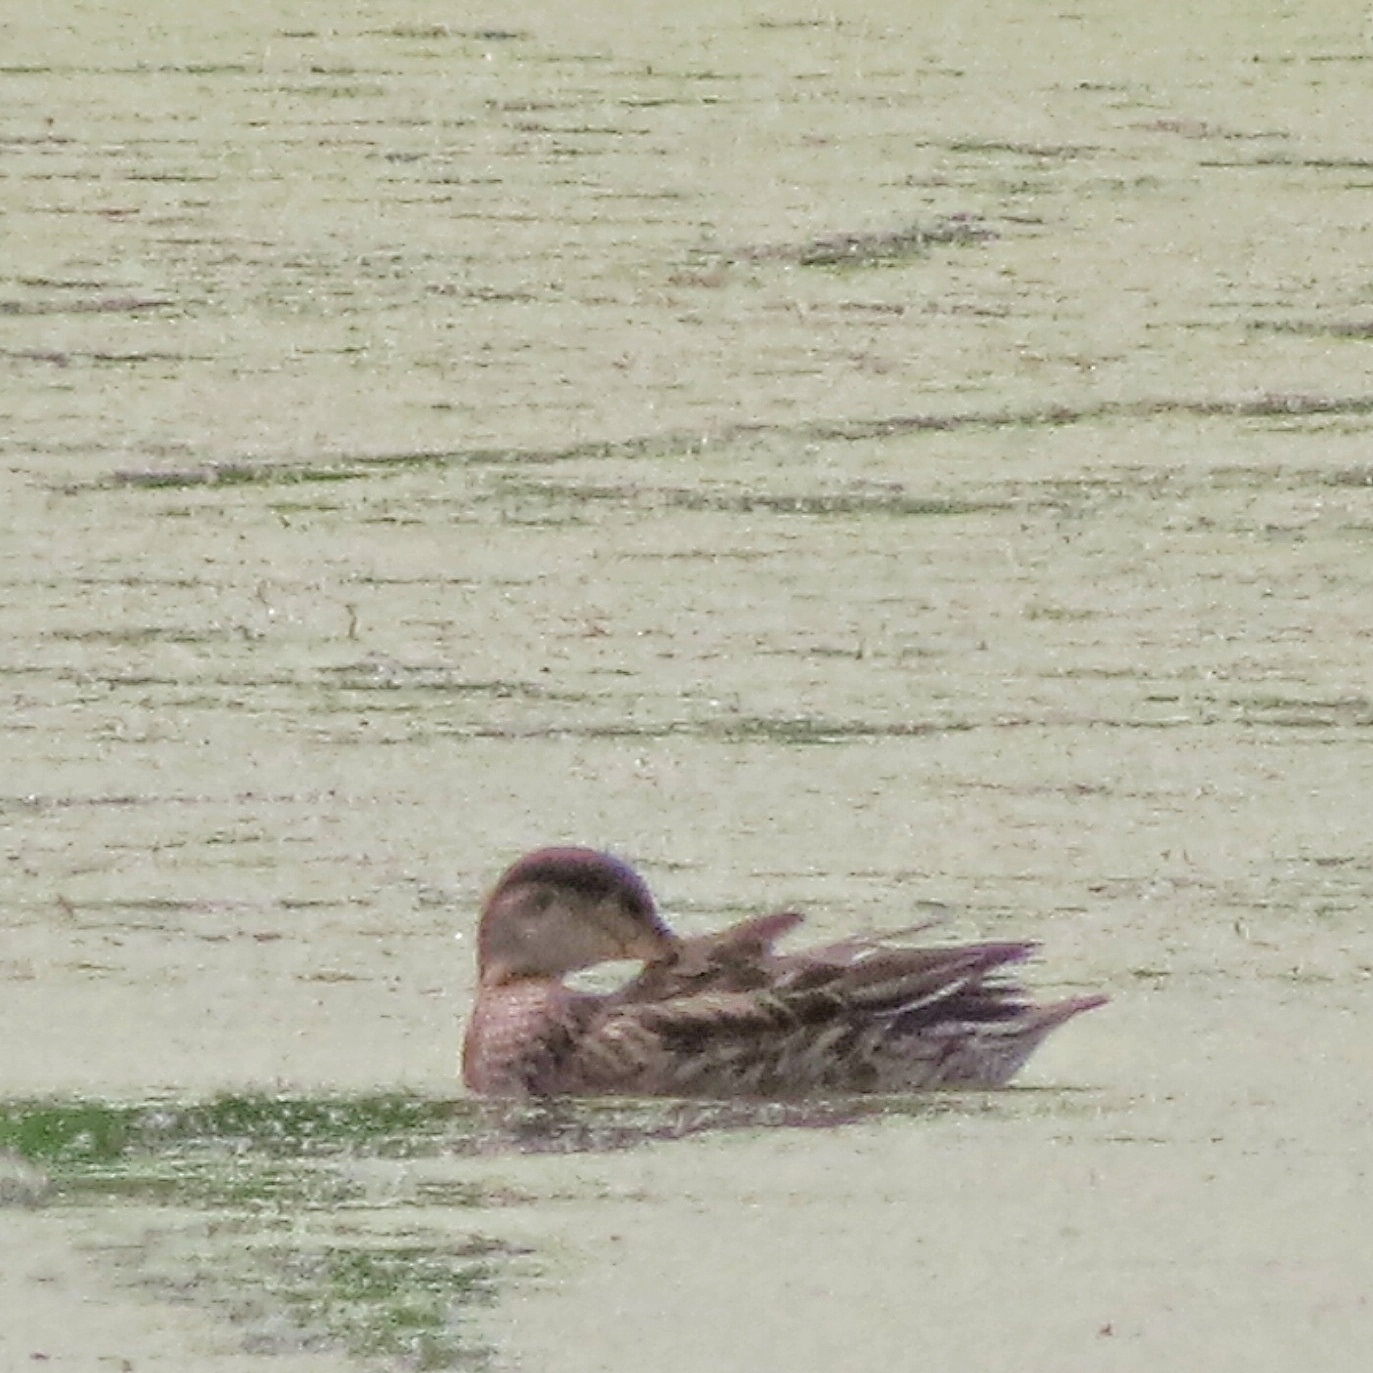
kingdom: Animalia
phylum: Chordata
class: Aves
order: Anseriformes
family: Anatidae
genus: Anas
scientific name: Anas crecca
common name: Eurasian teal
